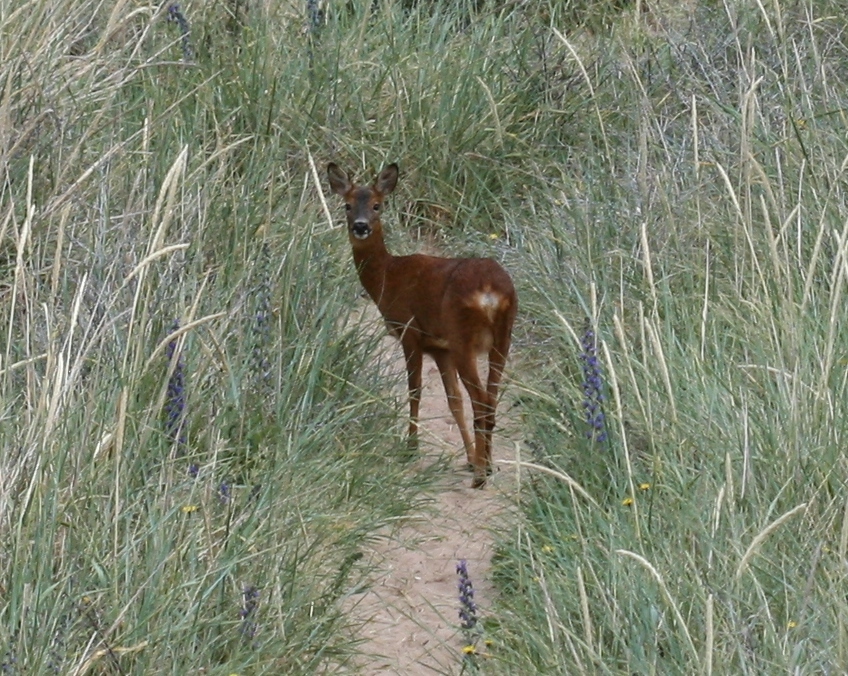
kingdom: Animalia
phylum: Chordata
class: Mammalia
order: Artiodactyla
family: Cervidae
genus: Capreolus
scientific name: Capreolus capreolus
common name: Western roe deer
